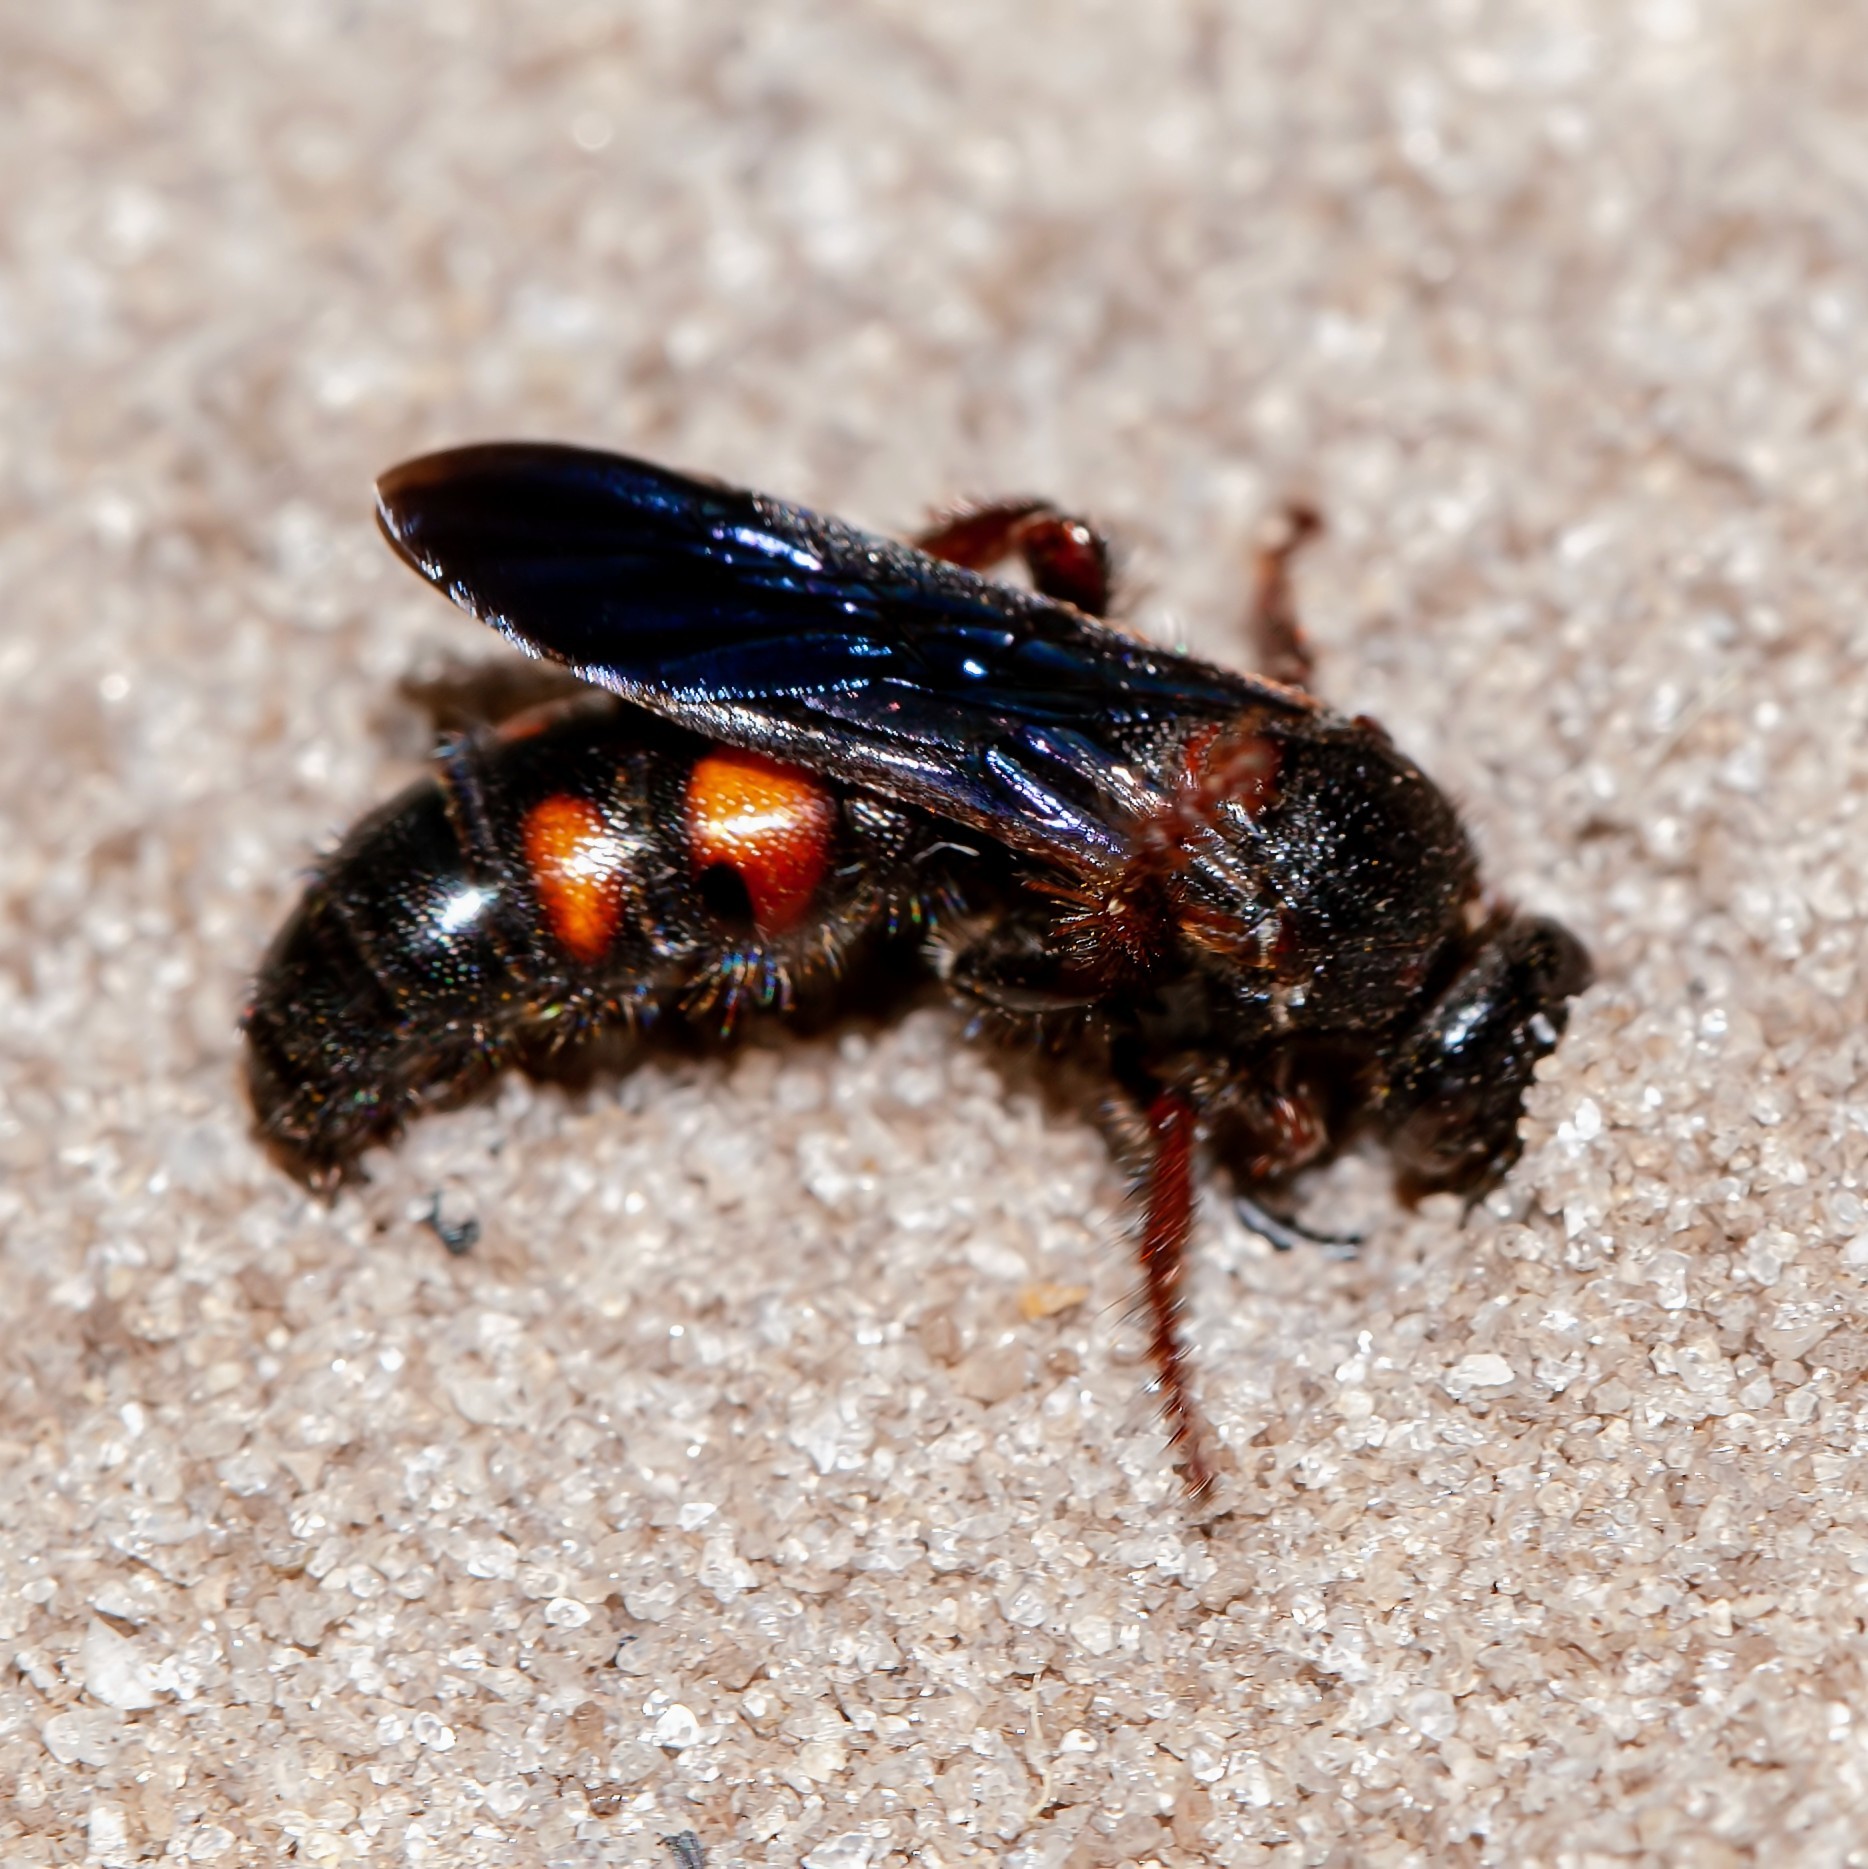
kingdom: Animalia
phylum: Arthropoda
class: Insecta
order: Hymenoptera
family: Scoliidae
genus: Scolia
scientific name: Scolia nobilitata
